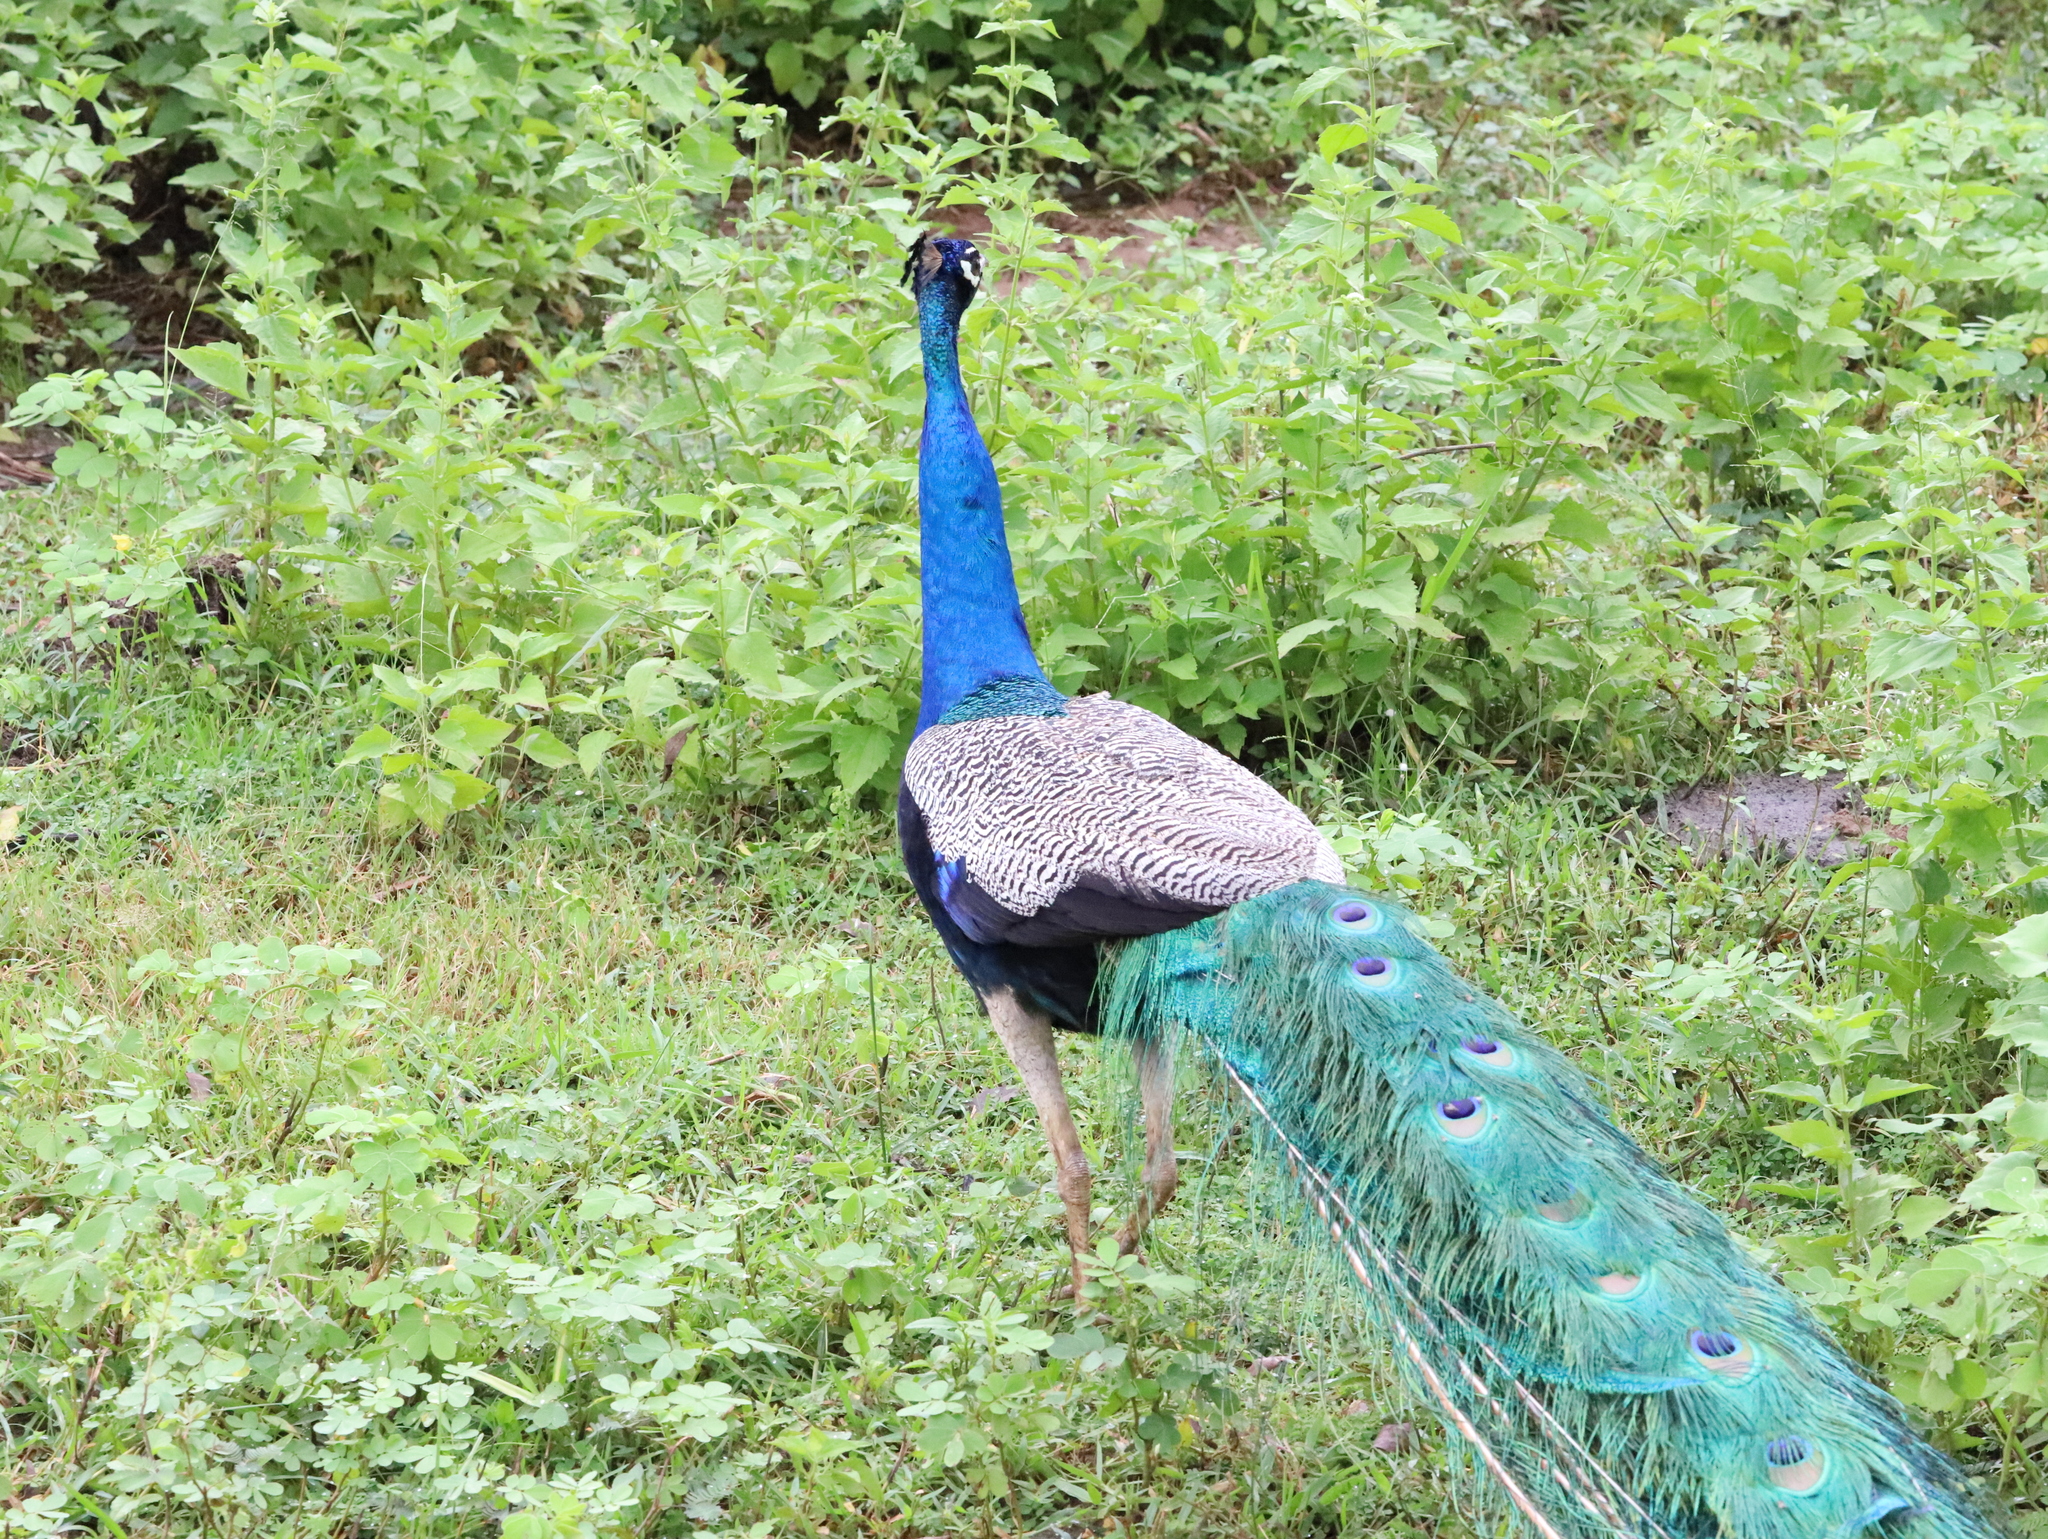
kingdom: Animalia
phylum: Chordata
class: Aves
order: Galliformes
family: Phasianidae
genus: Pavo
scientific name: Pavo cristatus
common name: Indian peafowl
